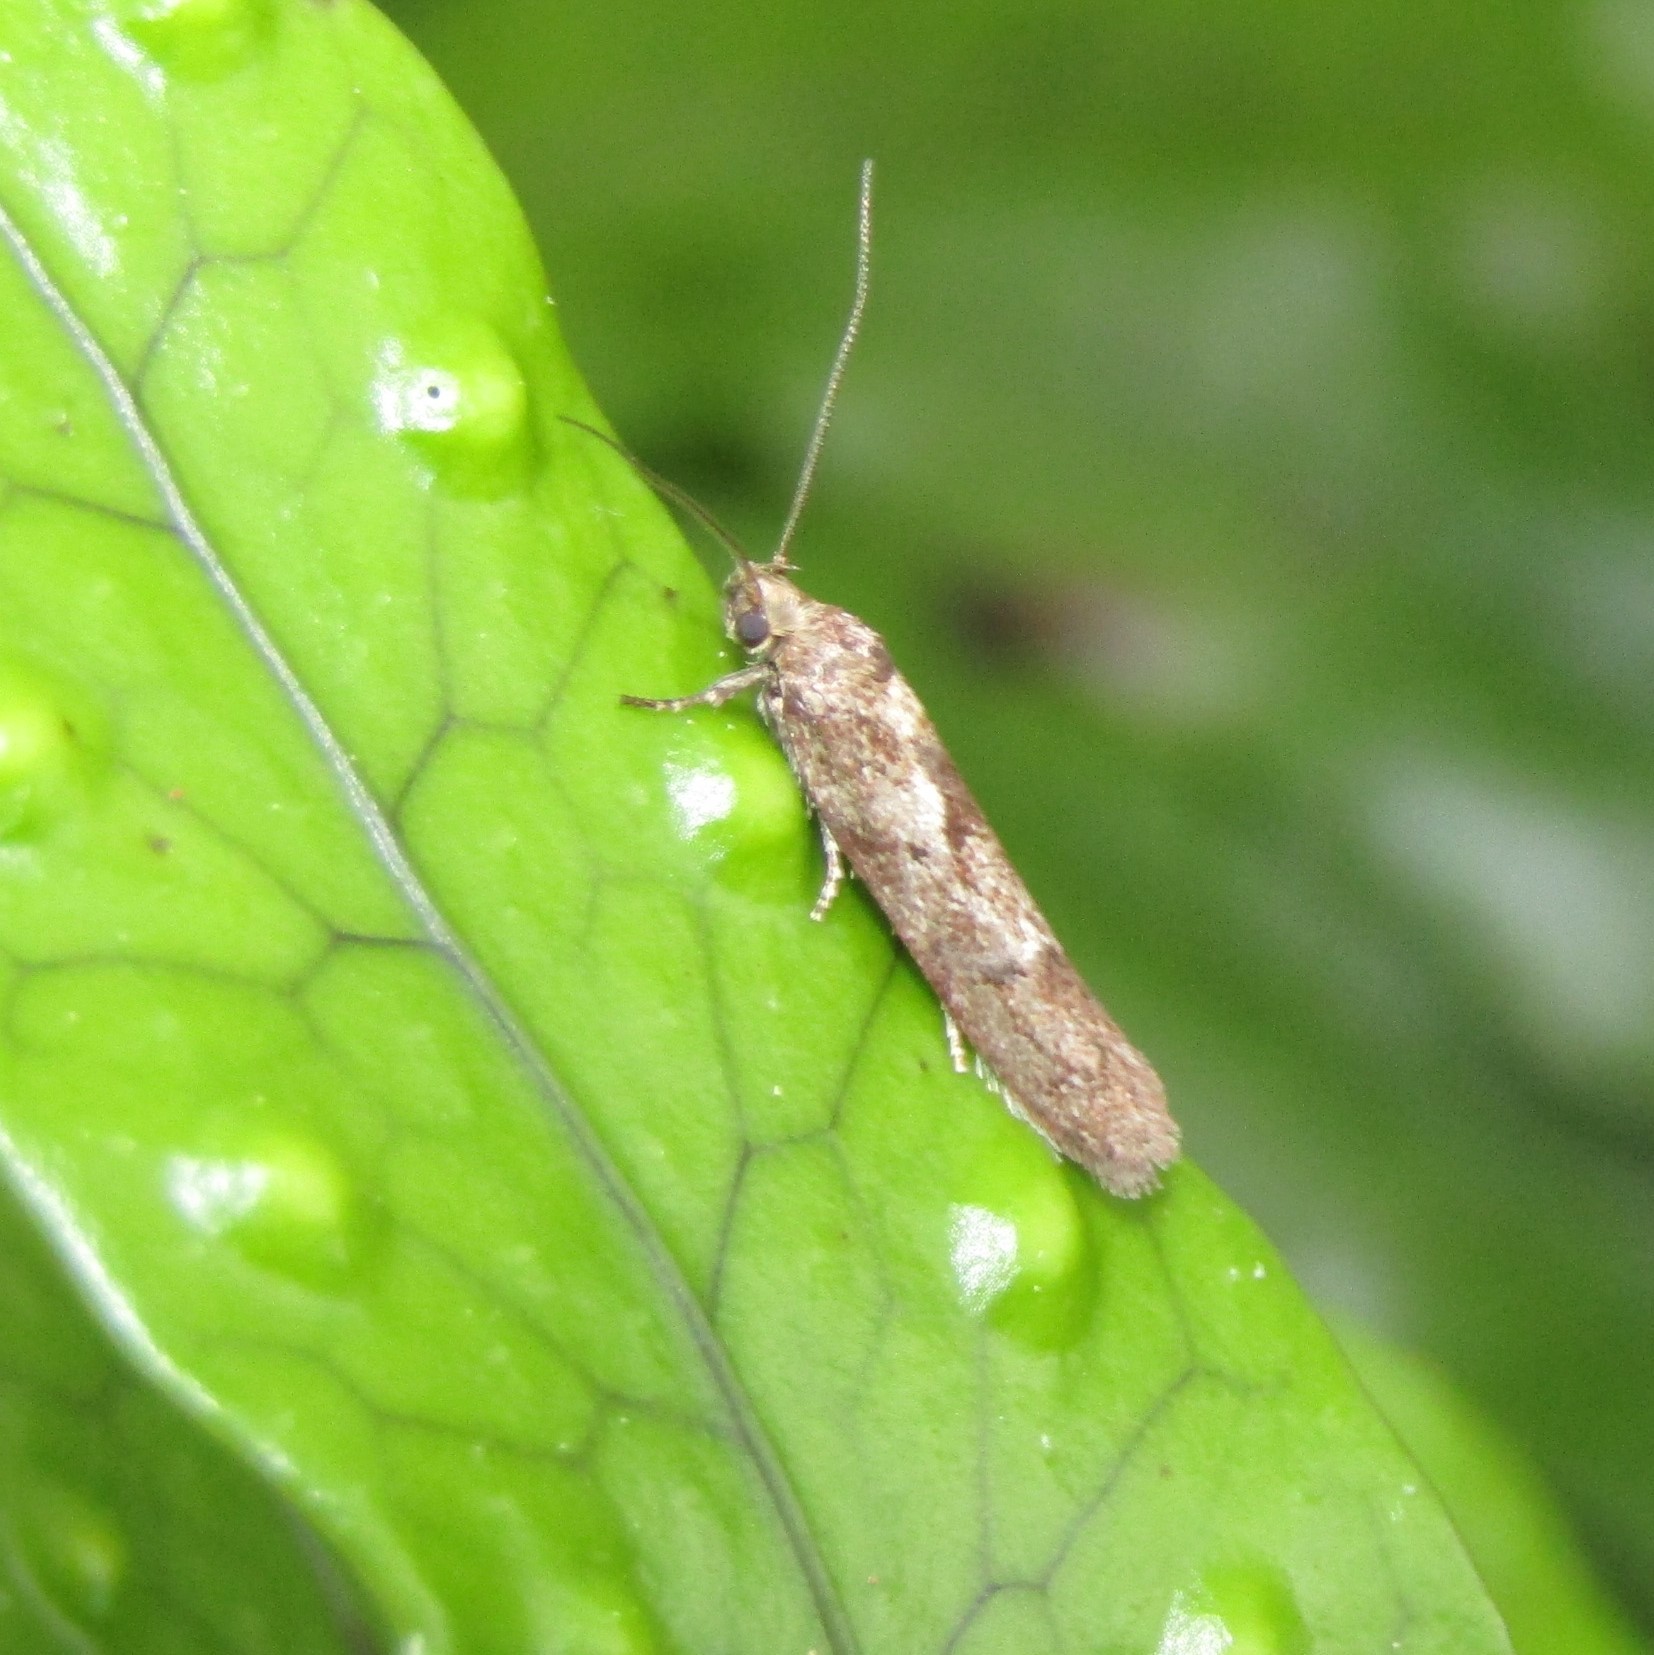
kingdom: Animalia
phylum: Arthropoda
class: Insecta
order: Lepidoptera
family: Oecophoridae
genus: Chersadaula
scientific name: Chersadaula ochrogastra
